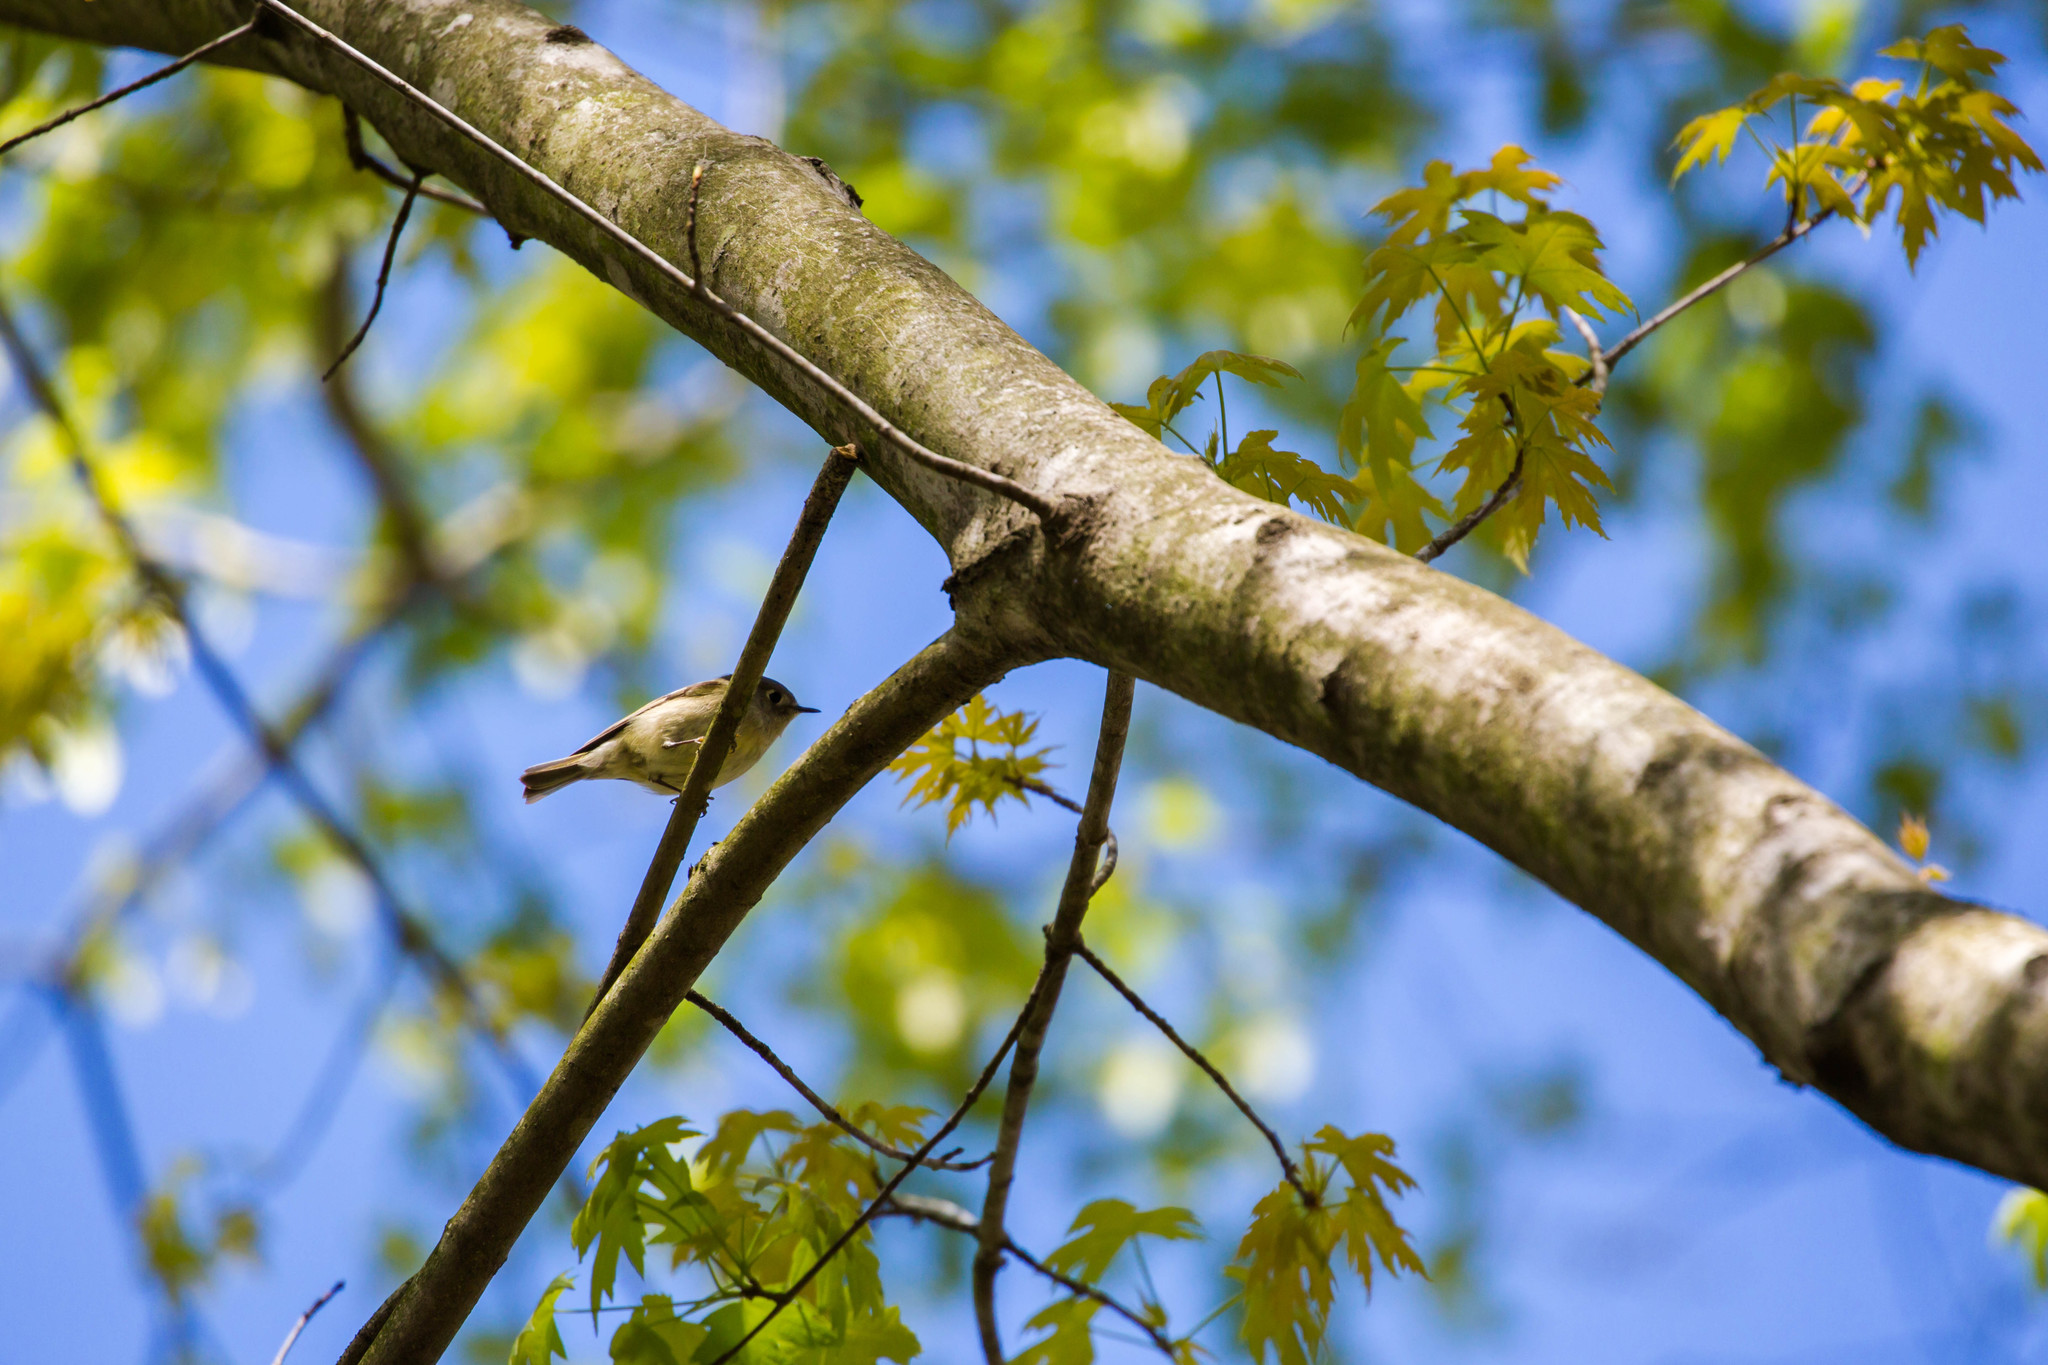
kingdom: Animalia
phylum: Chordata
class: Aves
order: Passeriformes
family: Regulidae
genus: Regulus
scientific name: Regulus calendula
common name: Ruby-crowned kinglet
